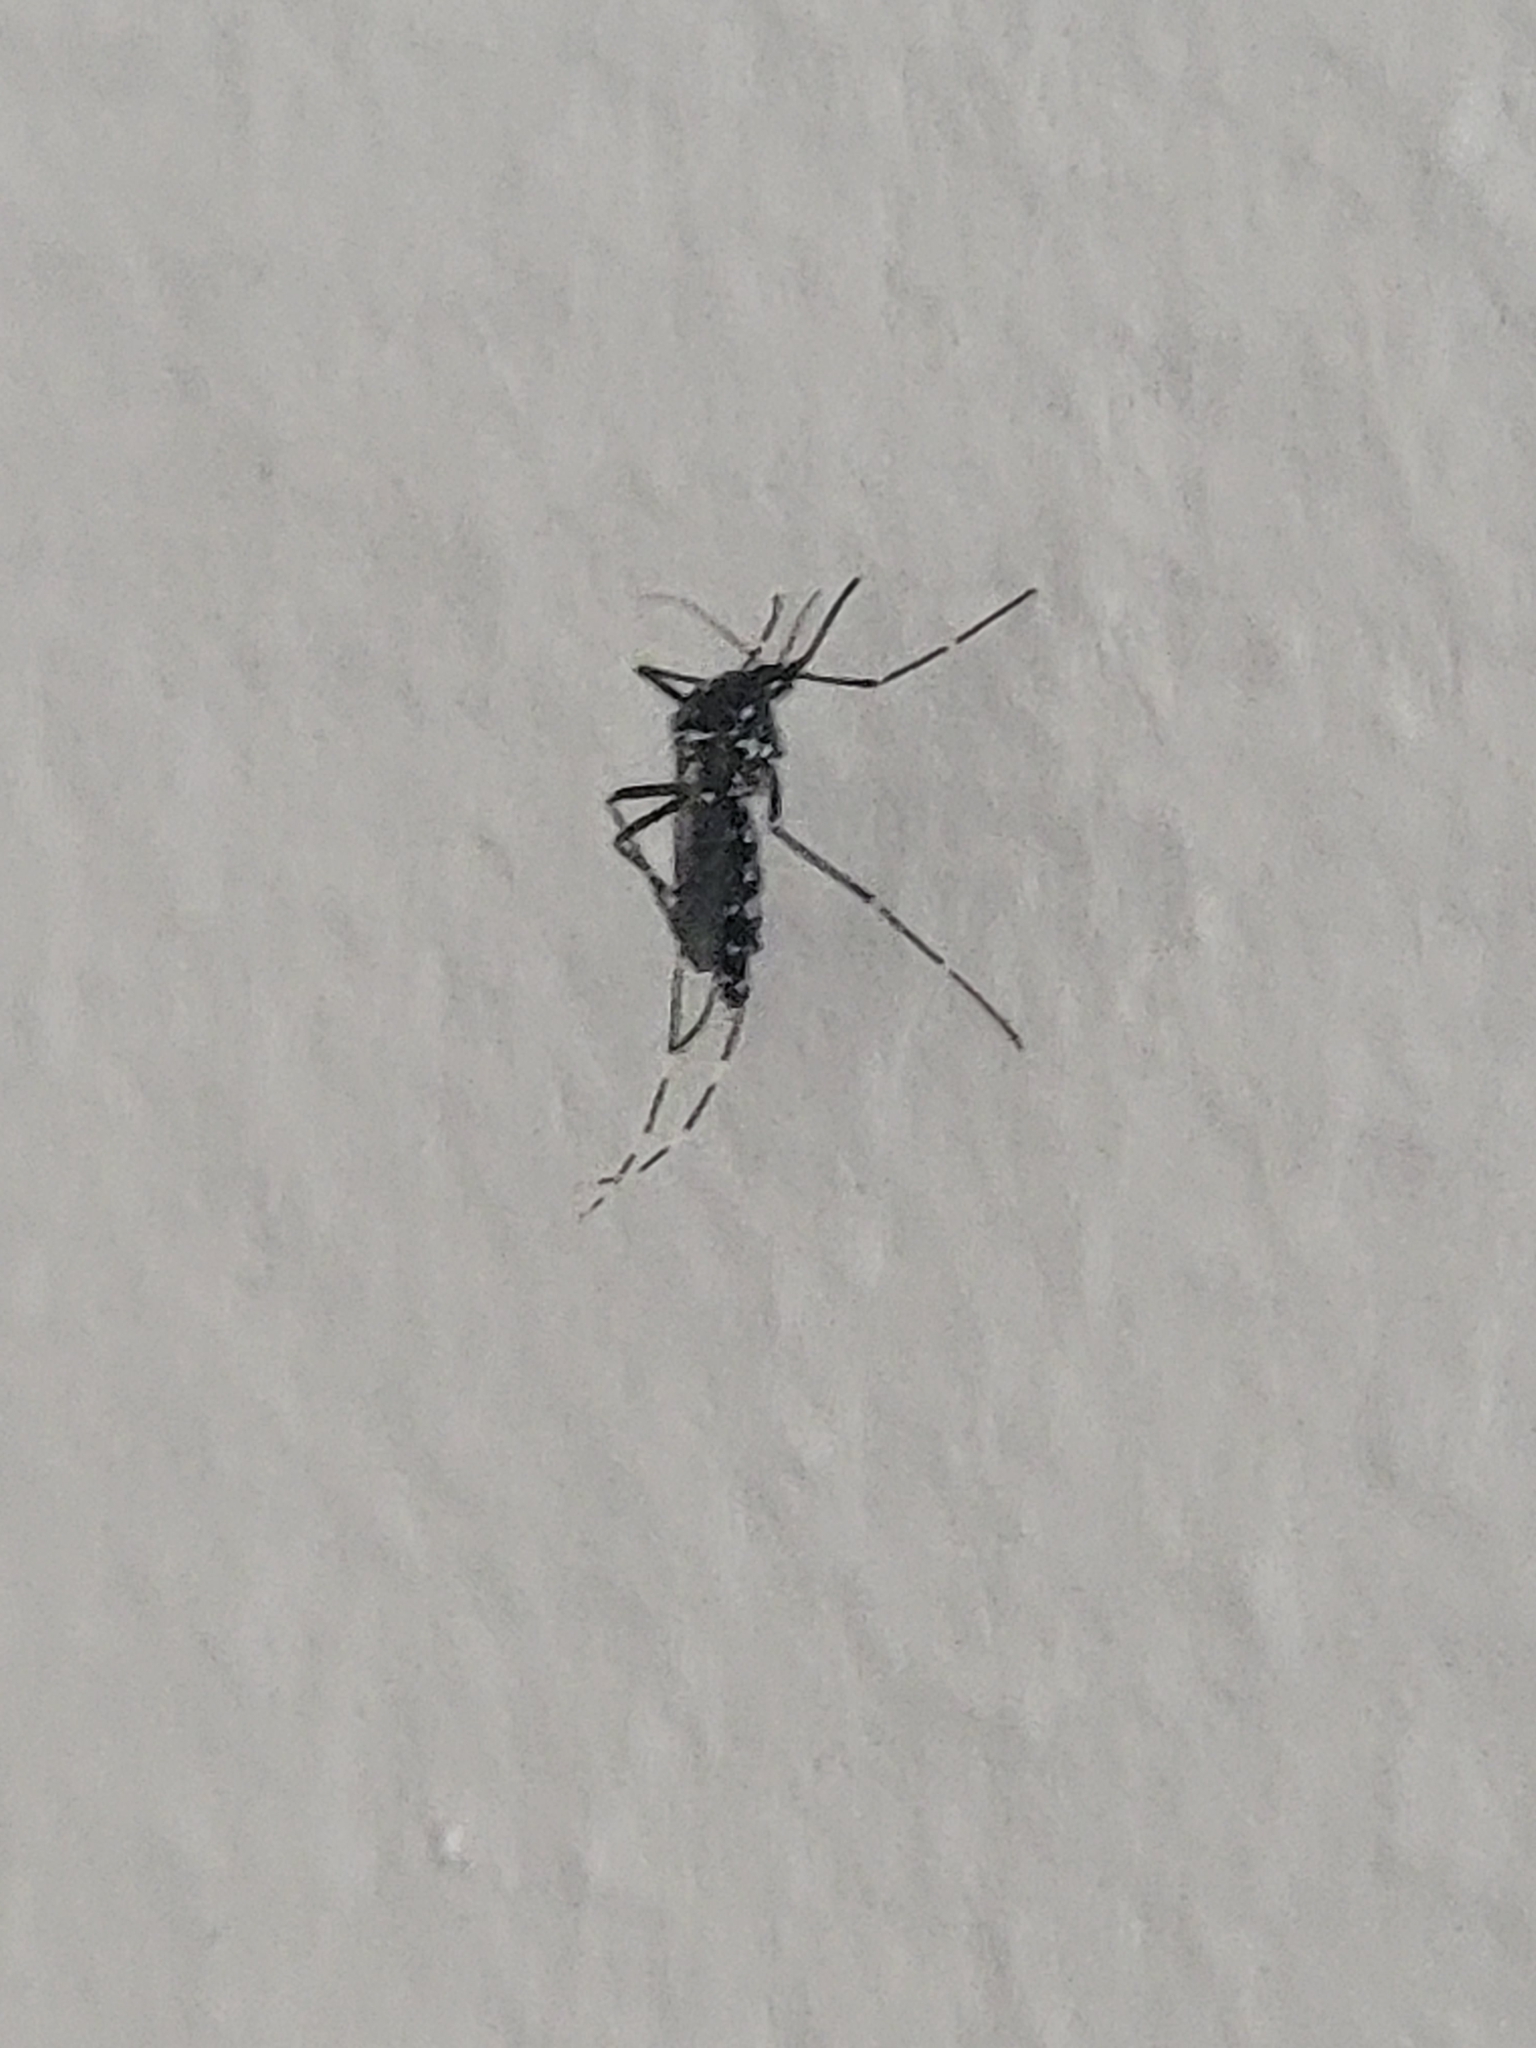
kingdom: Animalia
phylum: Arthropoda
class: Insecta
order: Diptera
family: Culicidae
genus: Aedes
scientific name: Aedes albopictus
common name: Tiger mosquito
